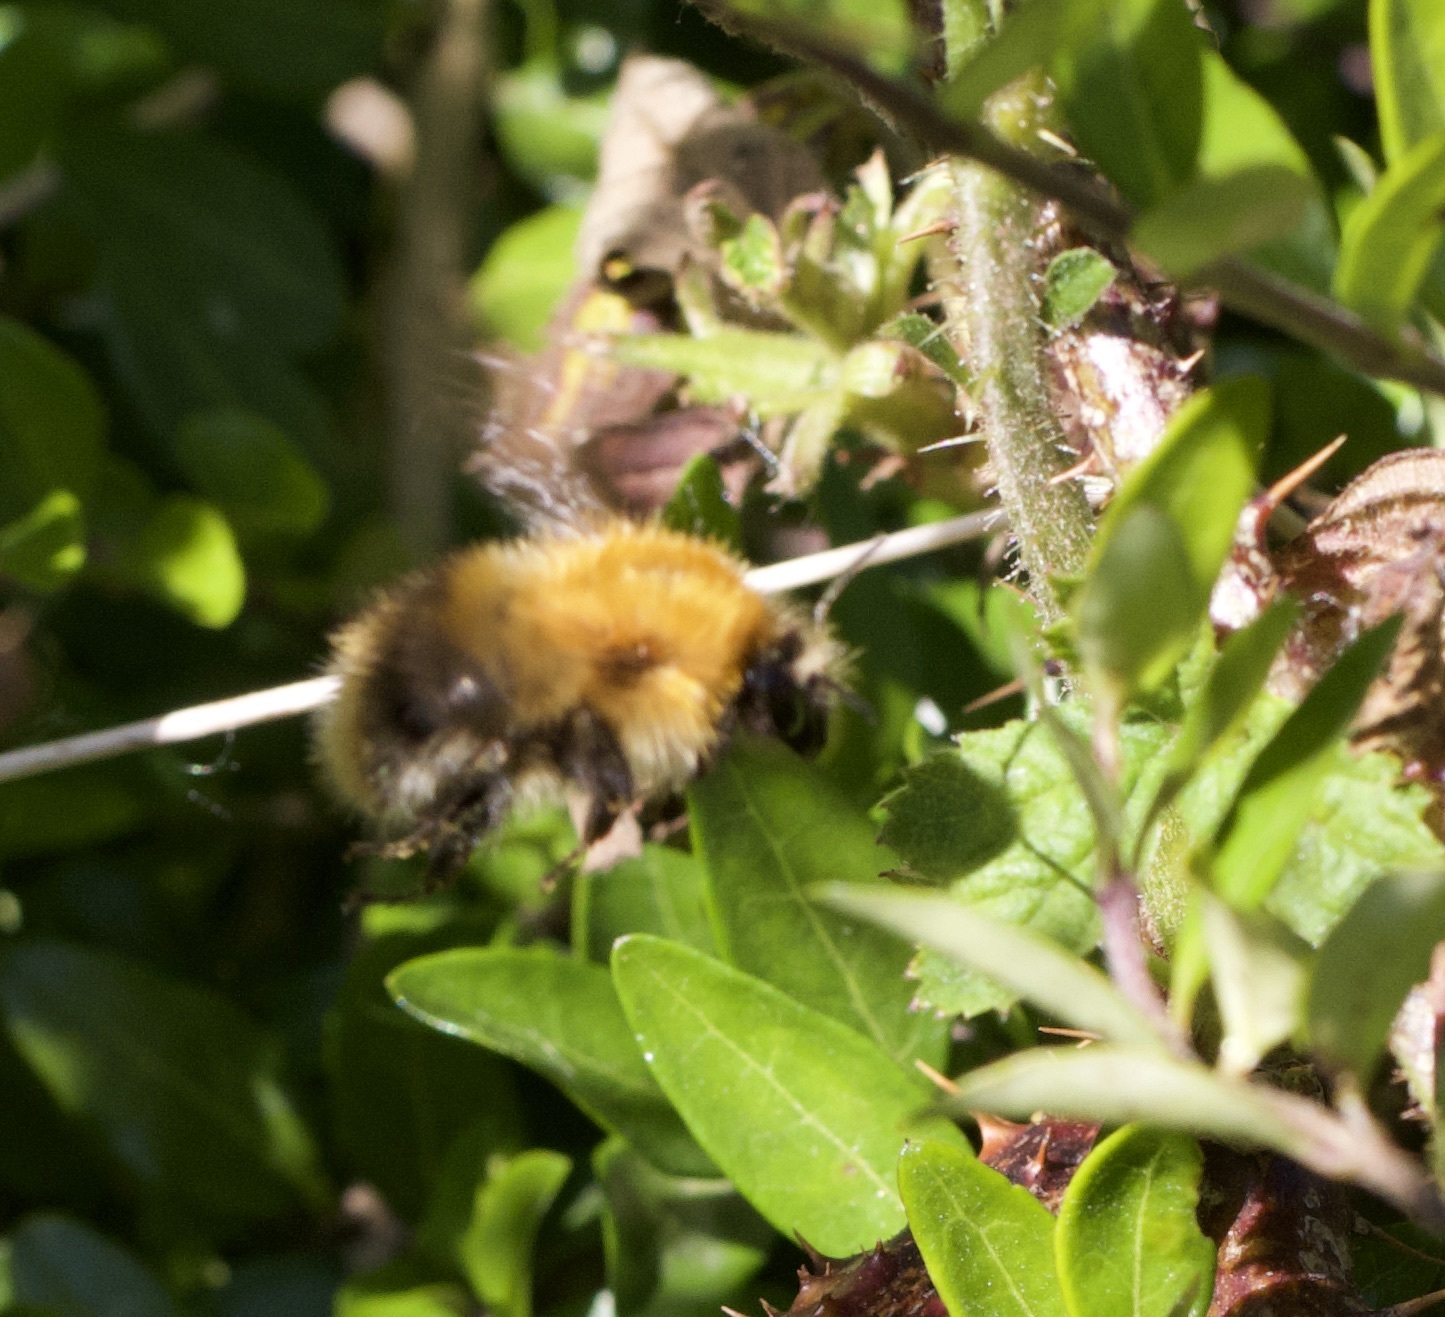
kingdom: Animalia
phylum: Arthropoda
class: Insecta
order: Hymenoptera
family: Apidae
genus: Bombus
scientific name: Bombus pascuorum
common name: Common carder bee
